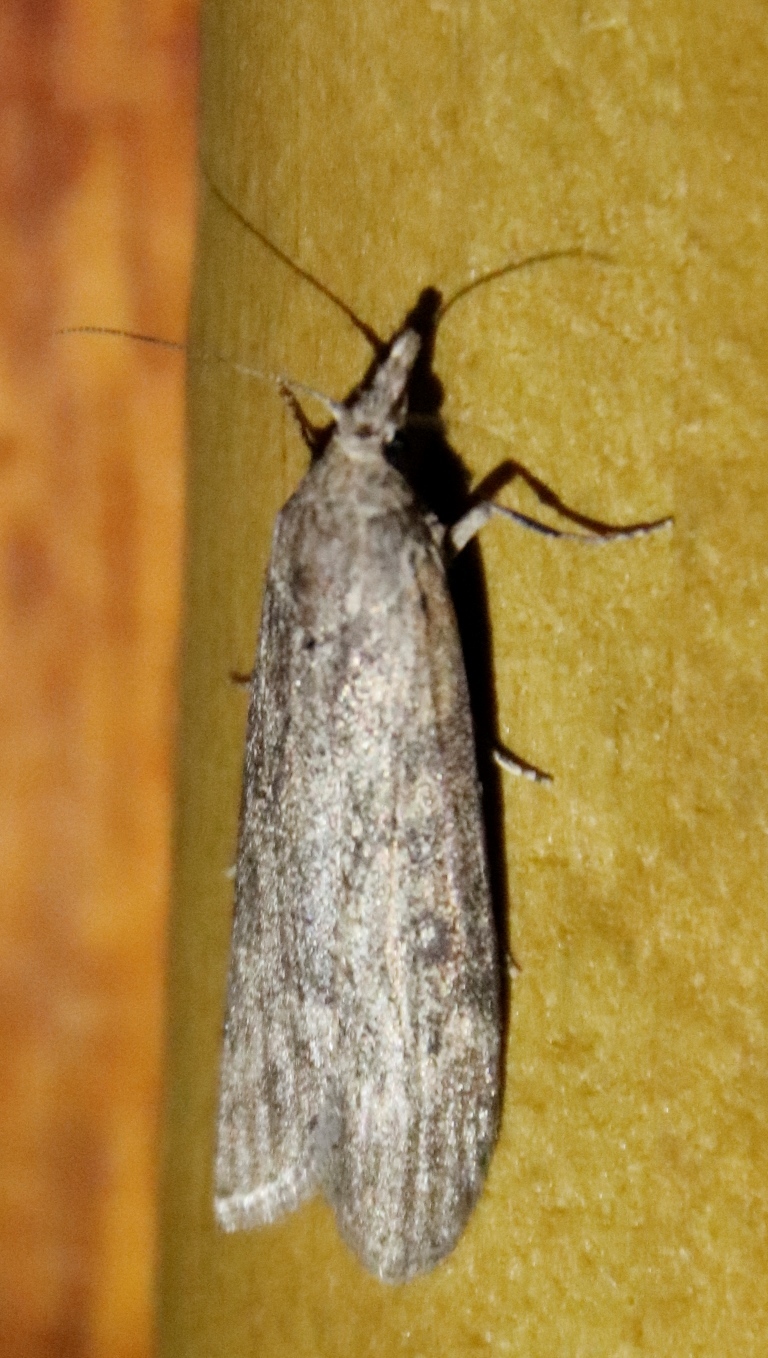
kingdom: Animalia
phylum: Arthropoda
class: Insecta
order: Lepidoptera
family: Pyralidae
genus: Lamoria
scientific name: Lamoria imbella
